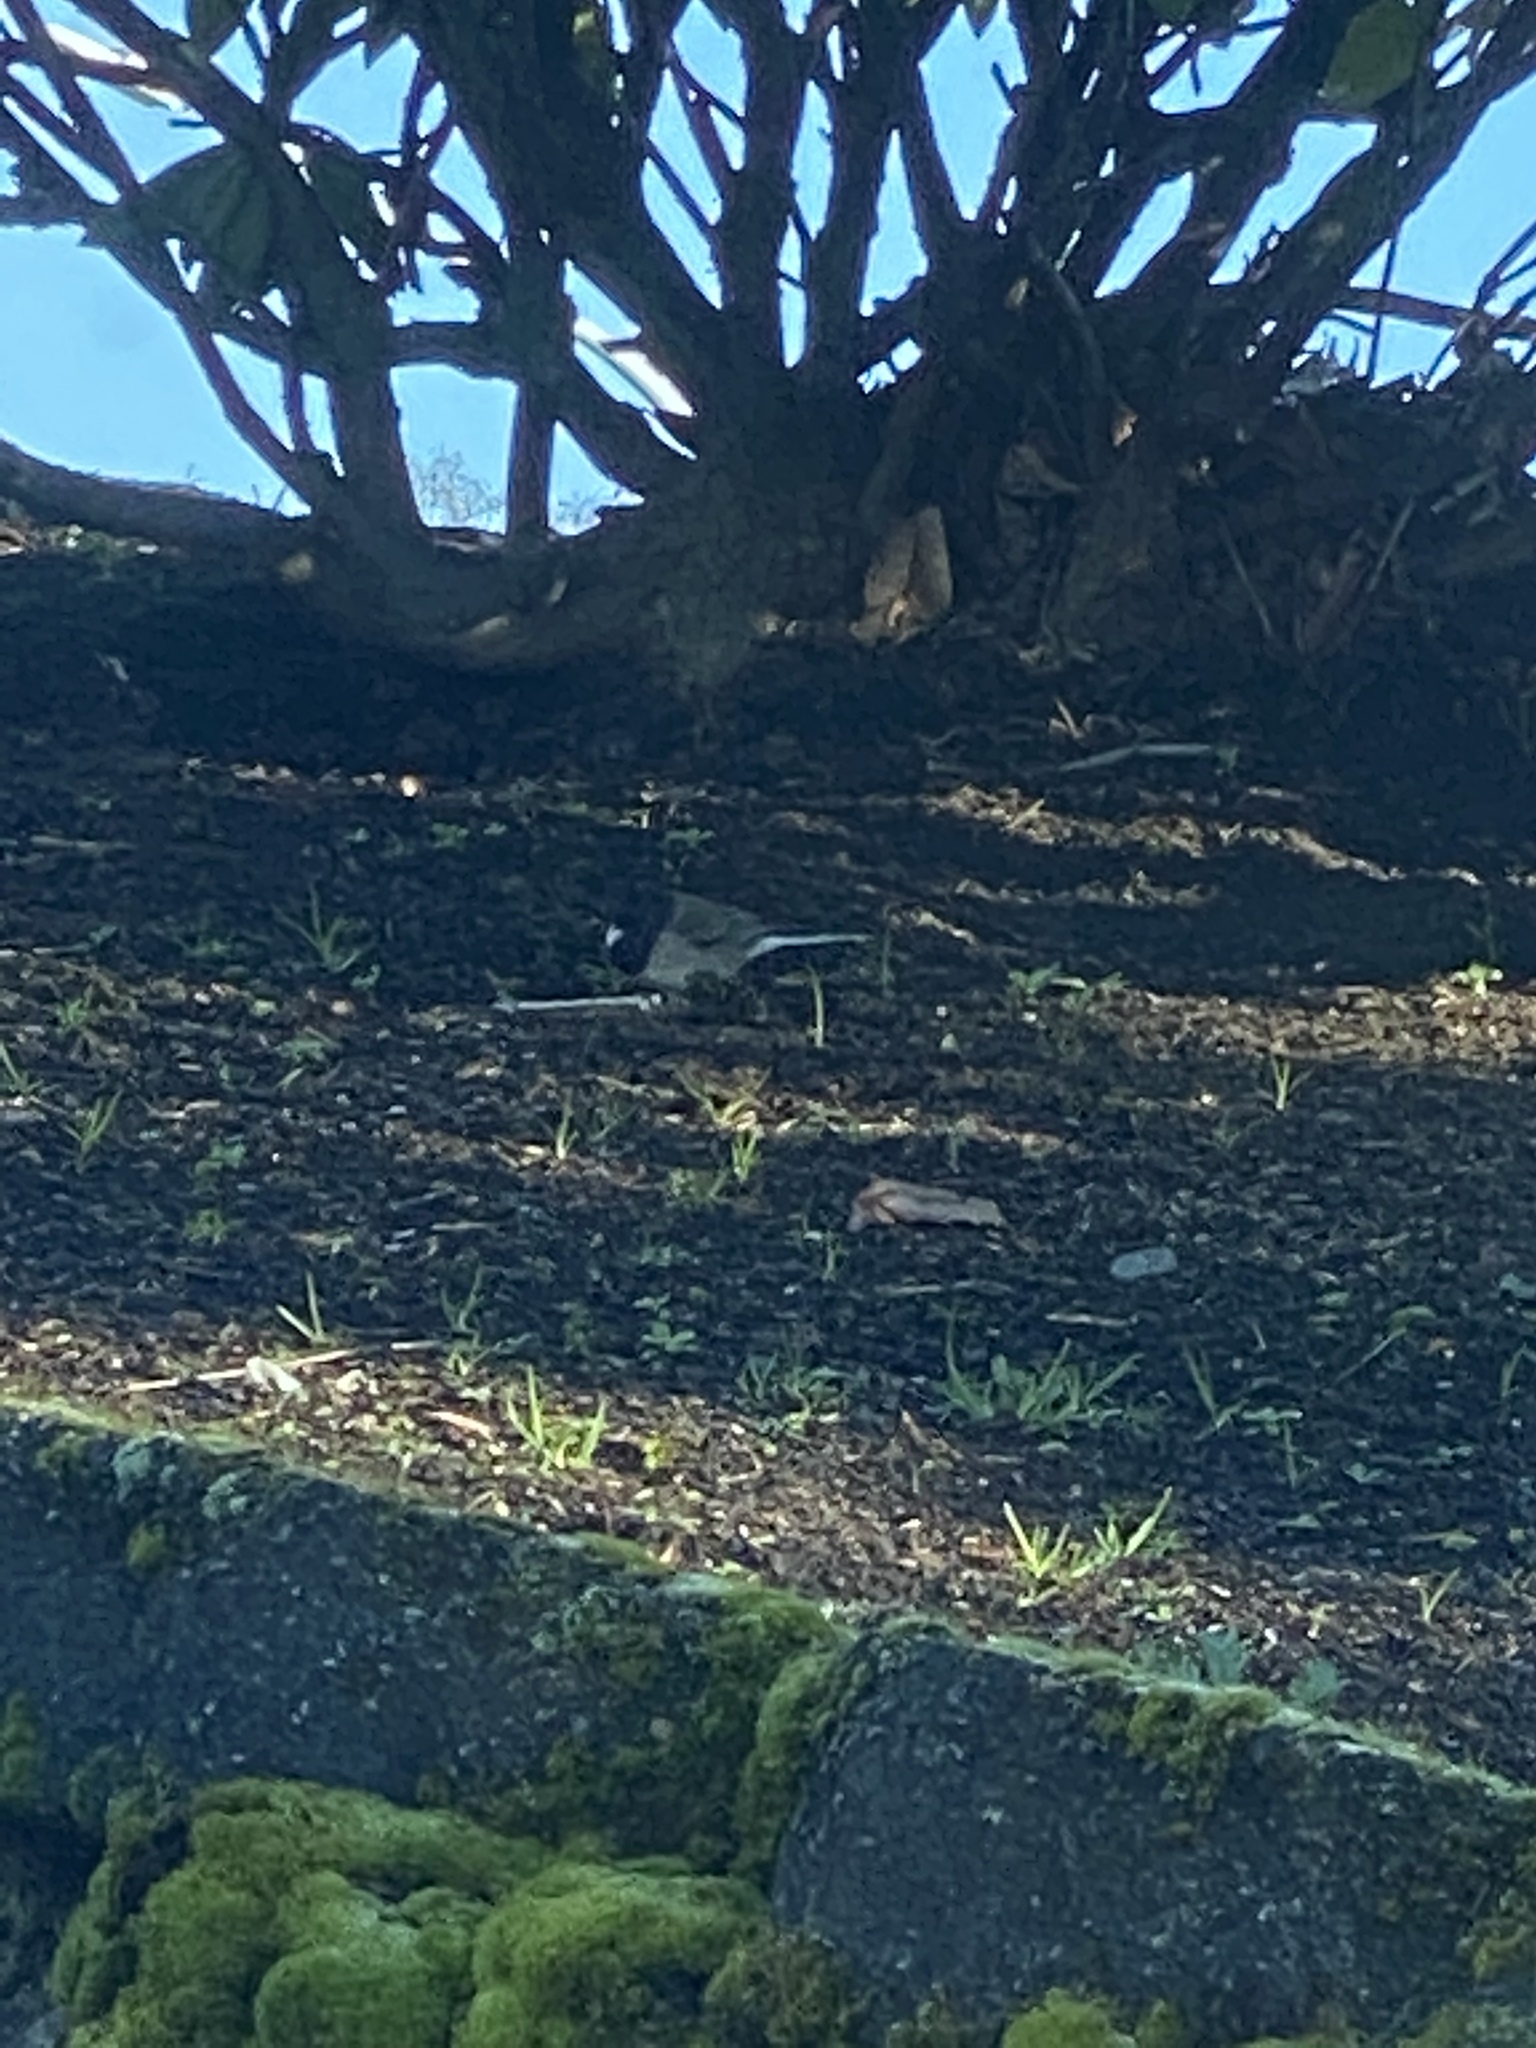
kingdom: Animalia
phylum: Chordata
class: Aves
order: Passeriformes
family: Passerellidae
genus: Junco
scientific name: Junco hyemalis
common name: Dark-eyed junco
